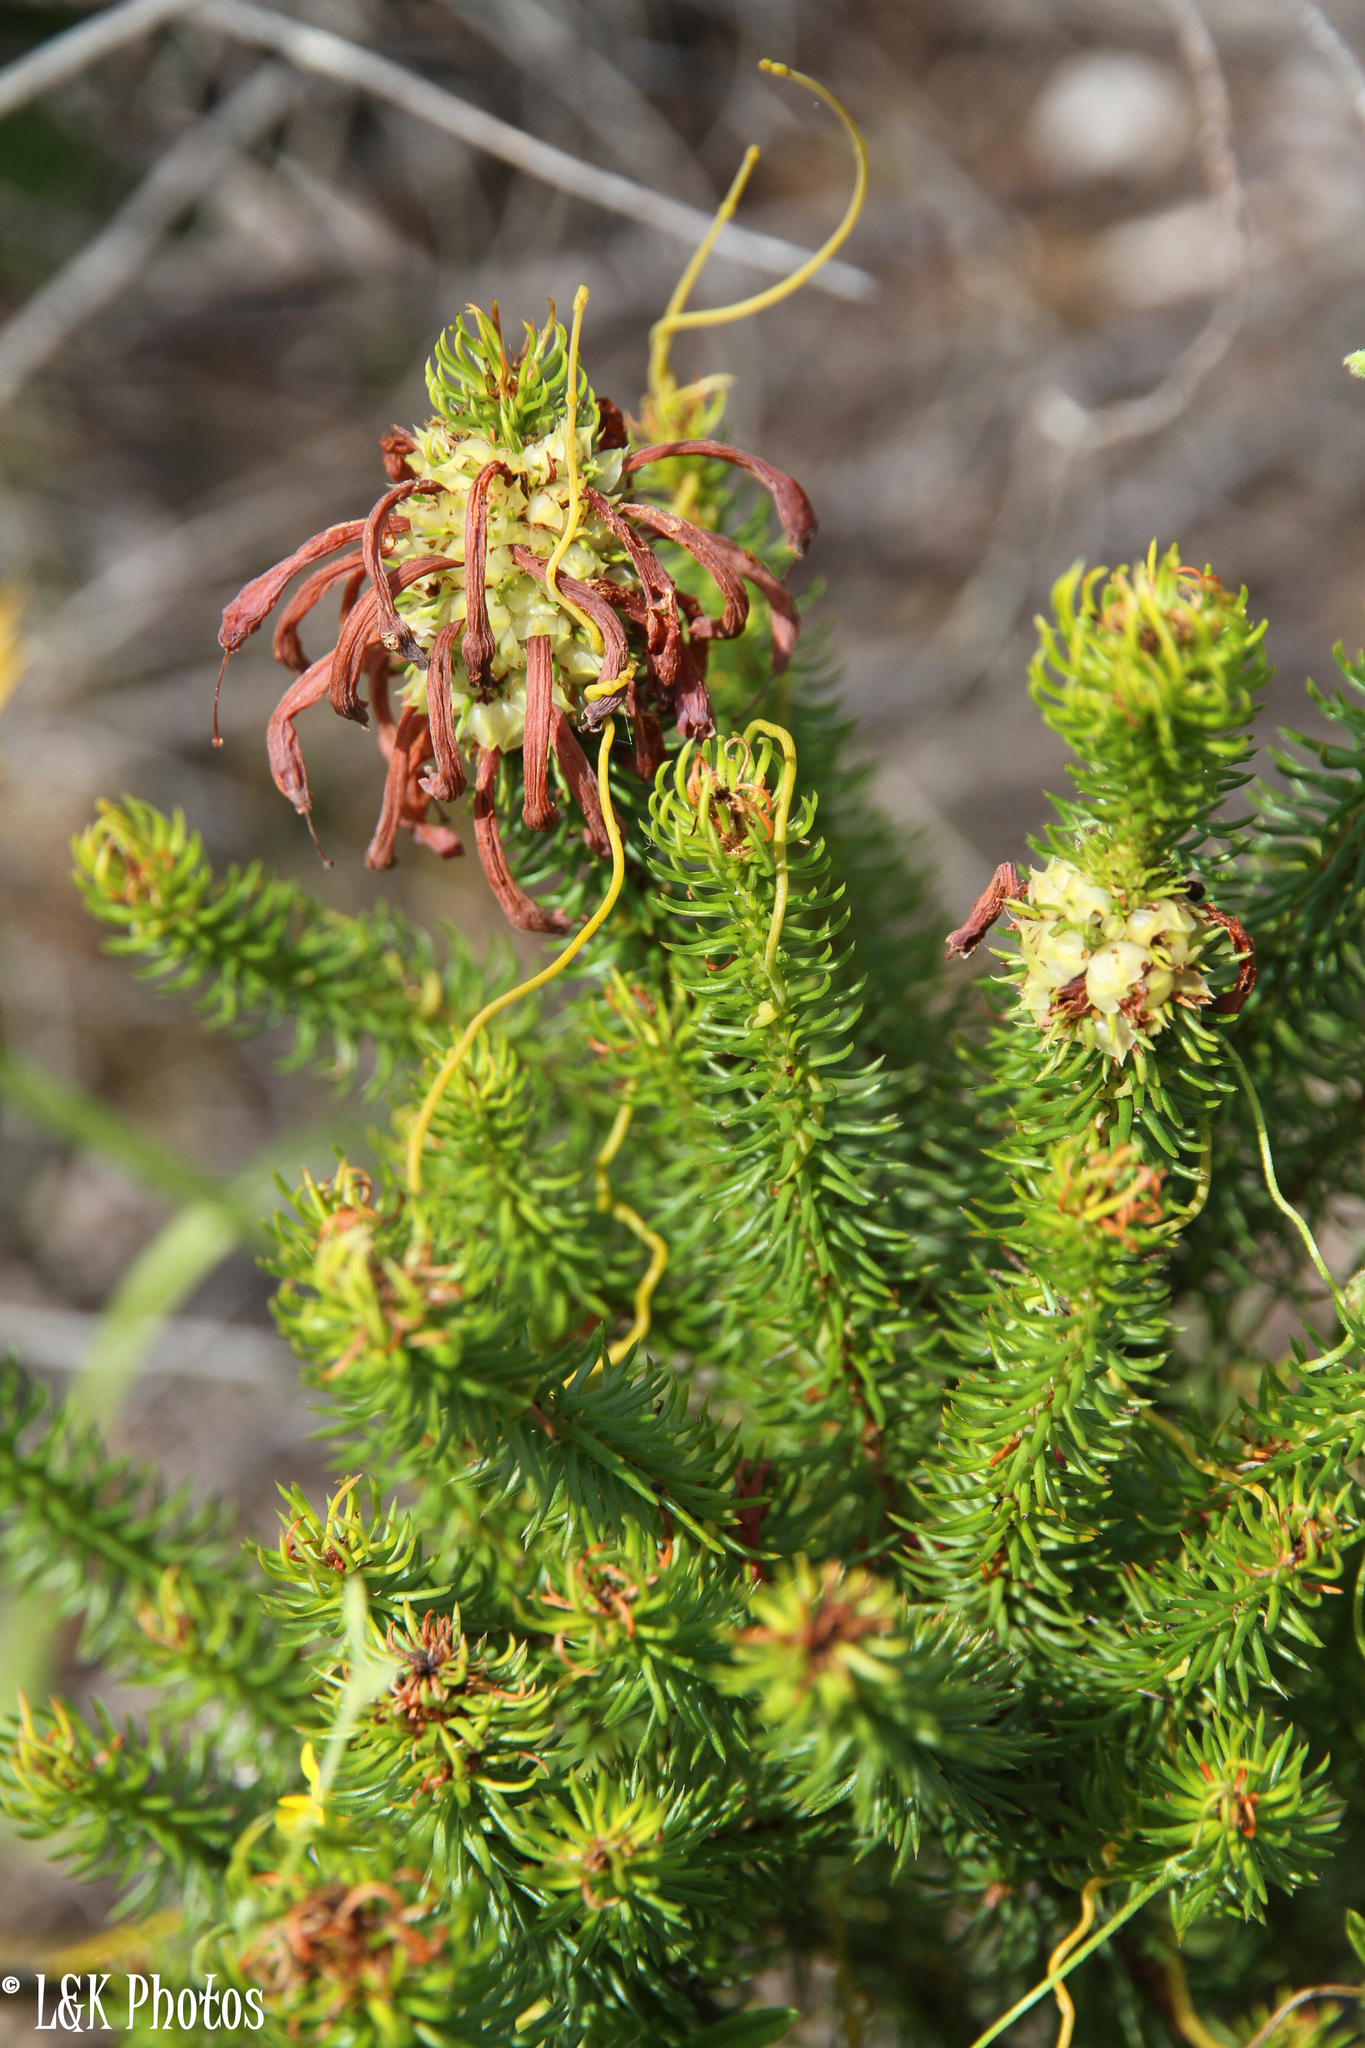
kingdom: Plantae
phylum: Tracheophyta
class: Magnoliopsida
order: Ericales
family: Ericaceae
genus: Erica
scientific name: Erica sessiliflora
